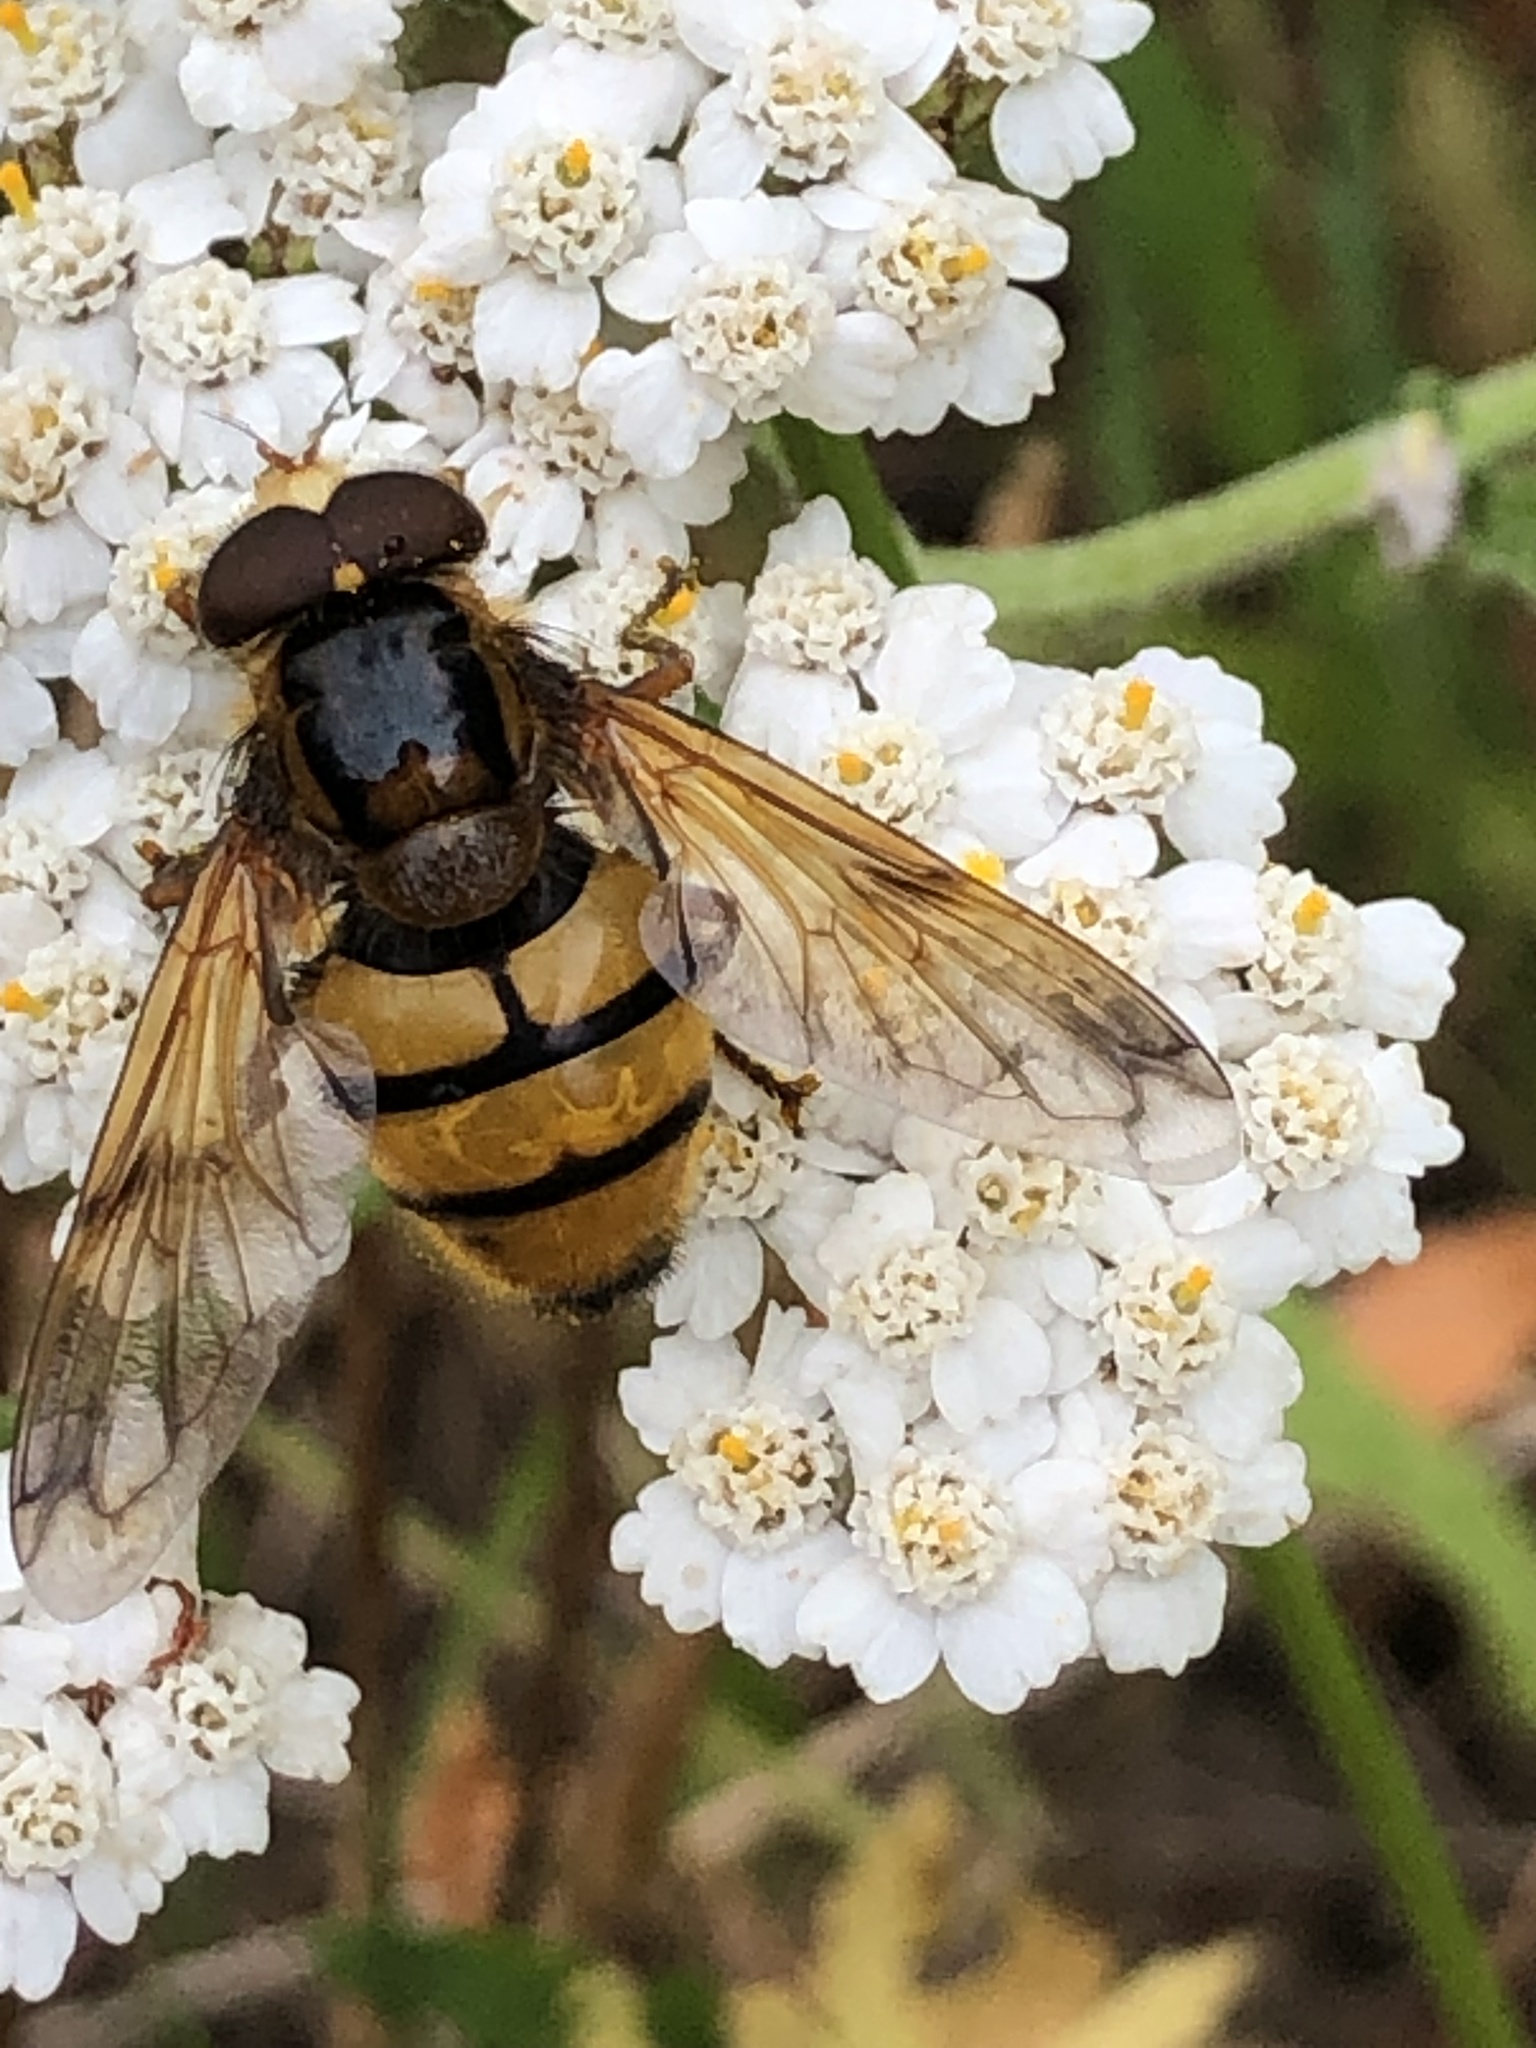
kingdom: Animalia
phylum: Arthropoda
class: Insecta
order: Diptera
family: Syrphidae
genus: Volucella
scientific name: Volucella inanis
